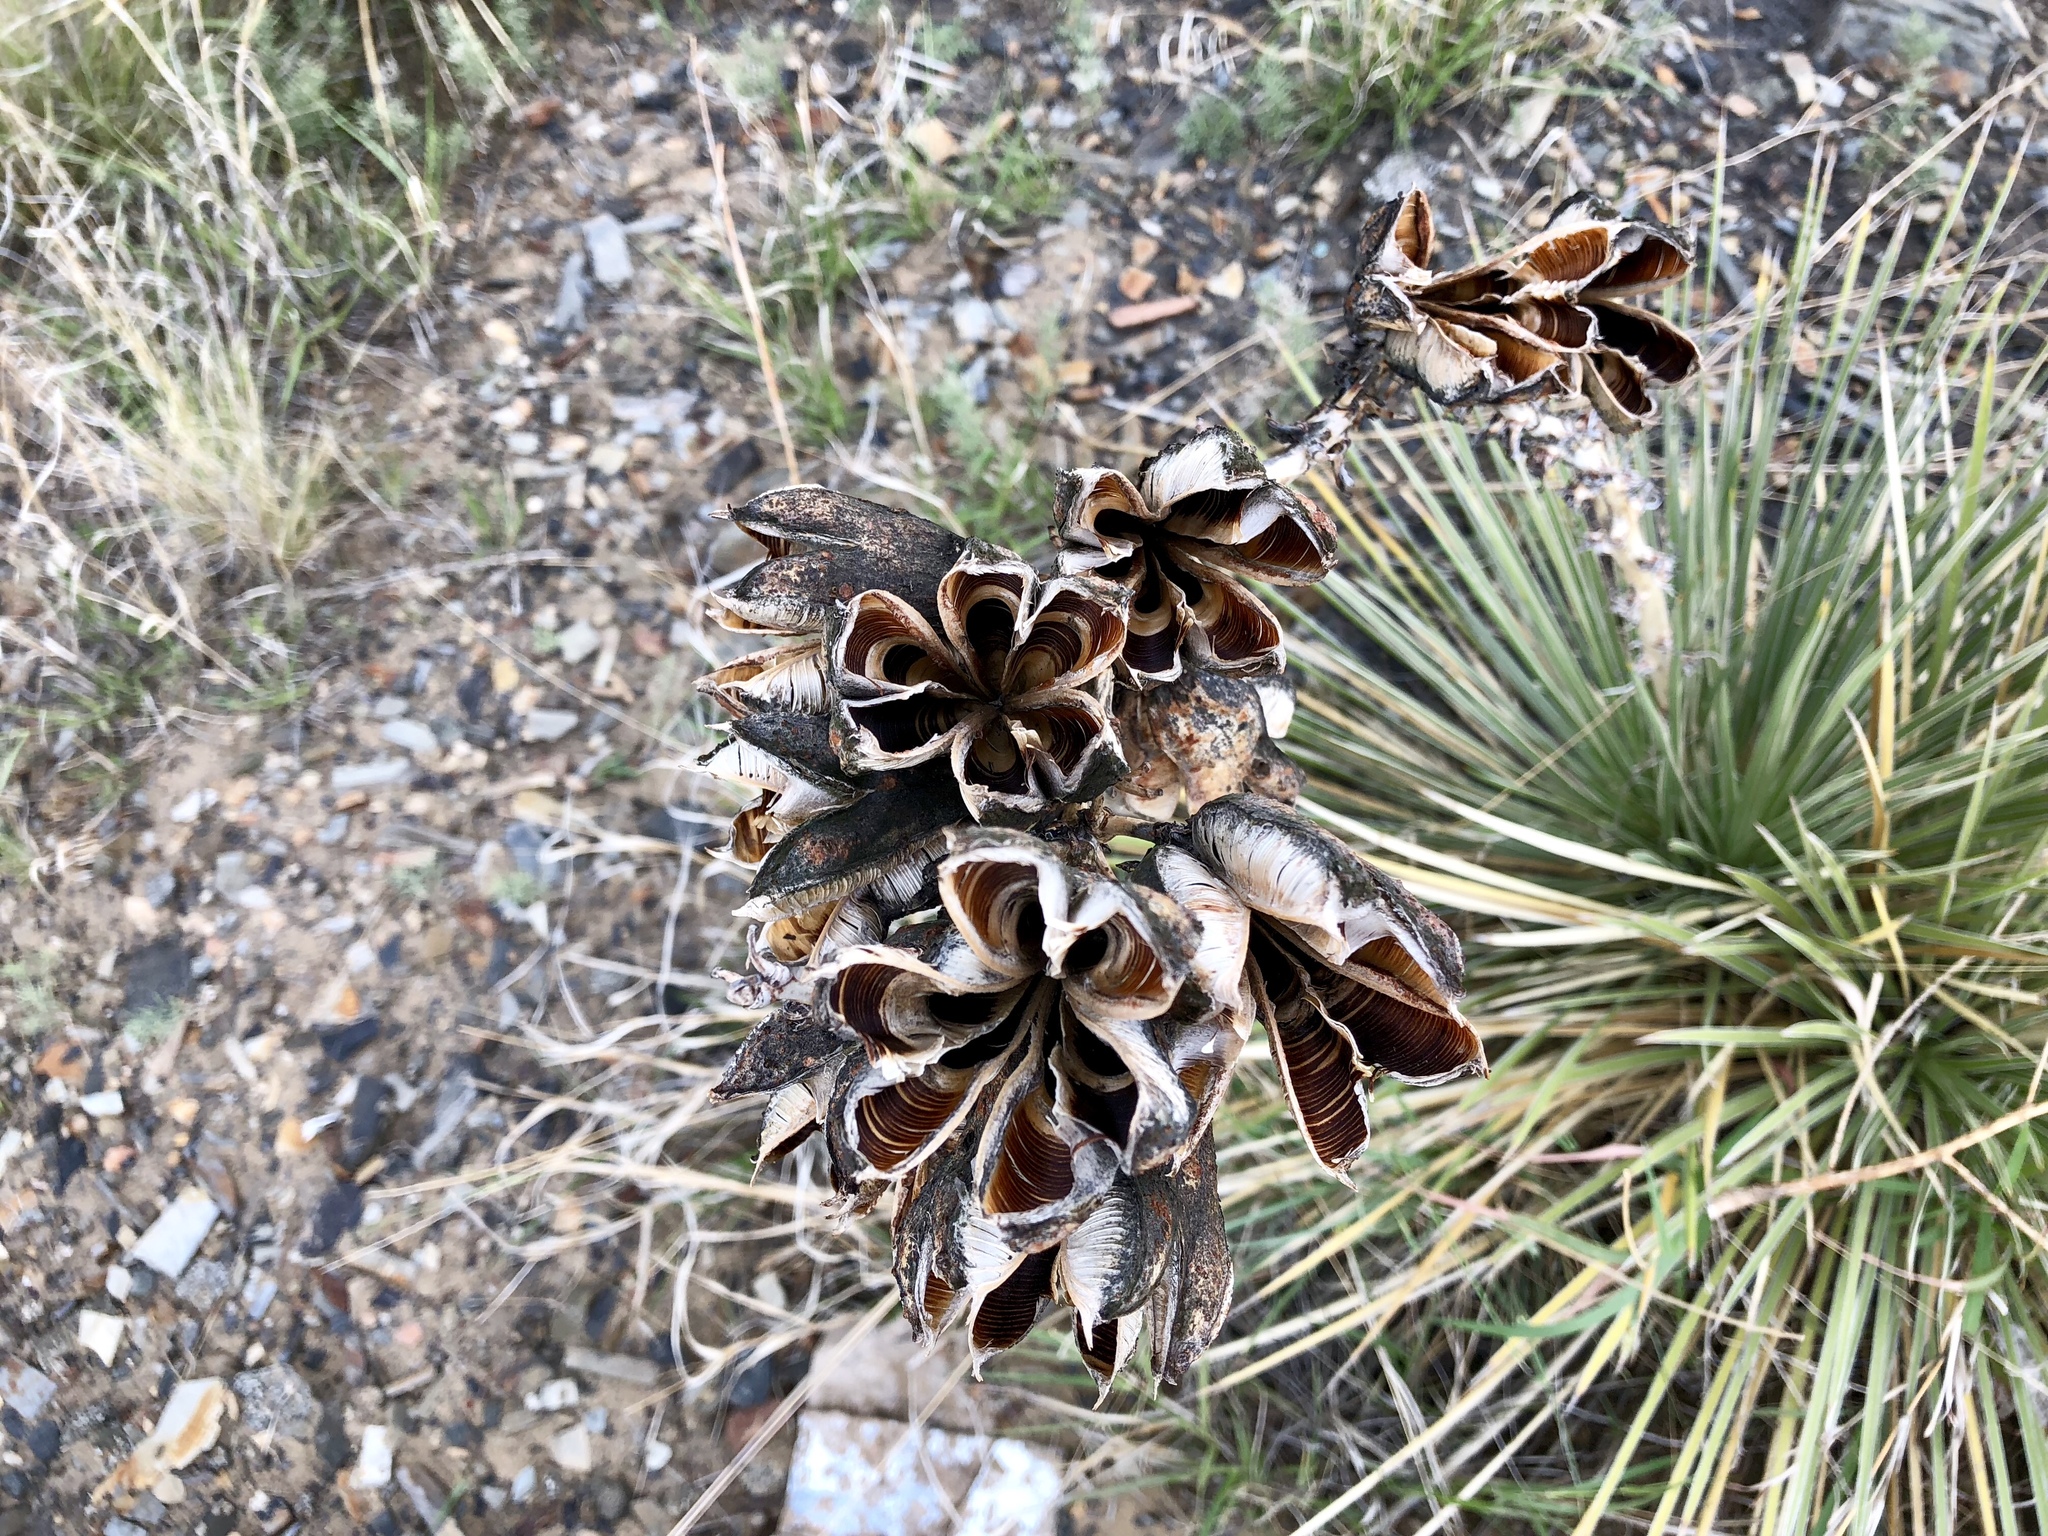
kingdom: Plantae
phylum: Tracheophyta
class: Liliopsida
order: Asparagales
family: Asparagaceae
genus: Yucca
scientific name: Yucca glauca
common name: Great plains yucca
